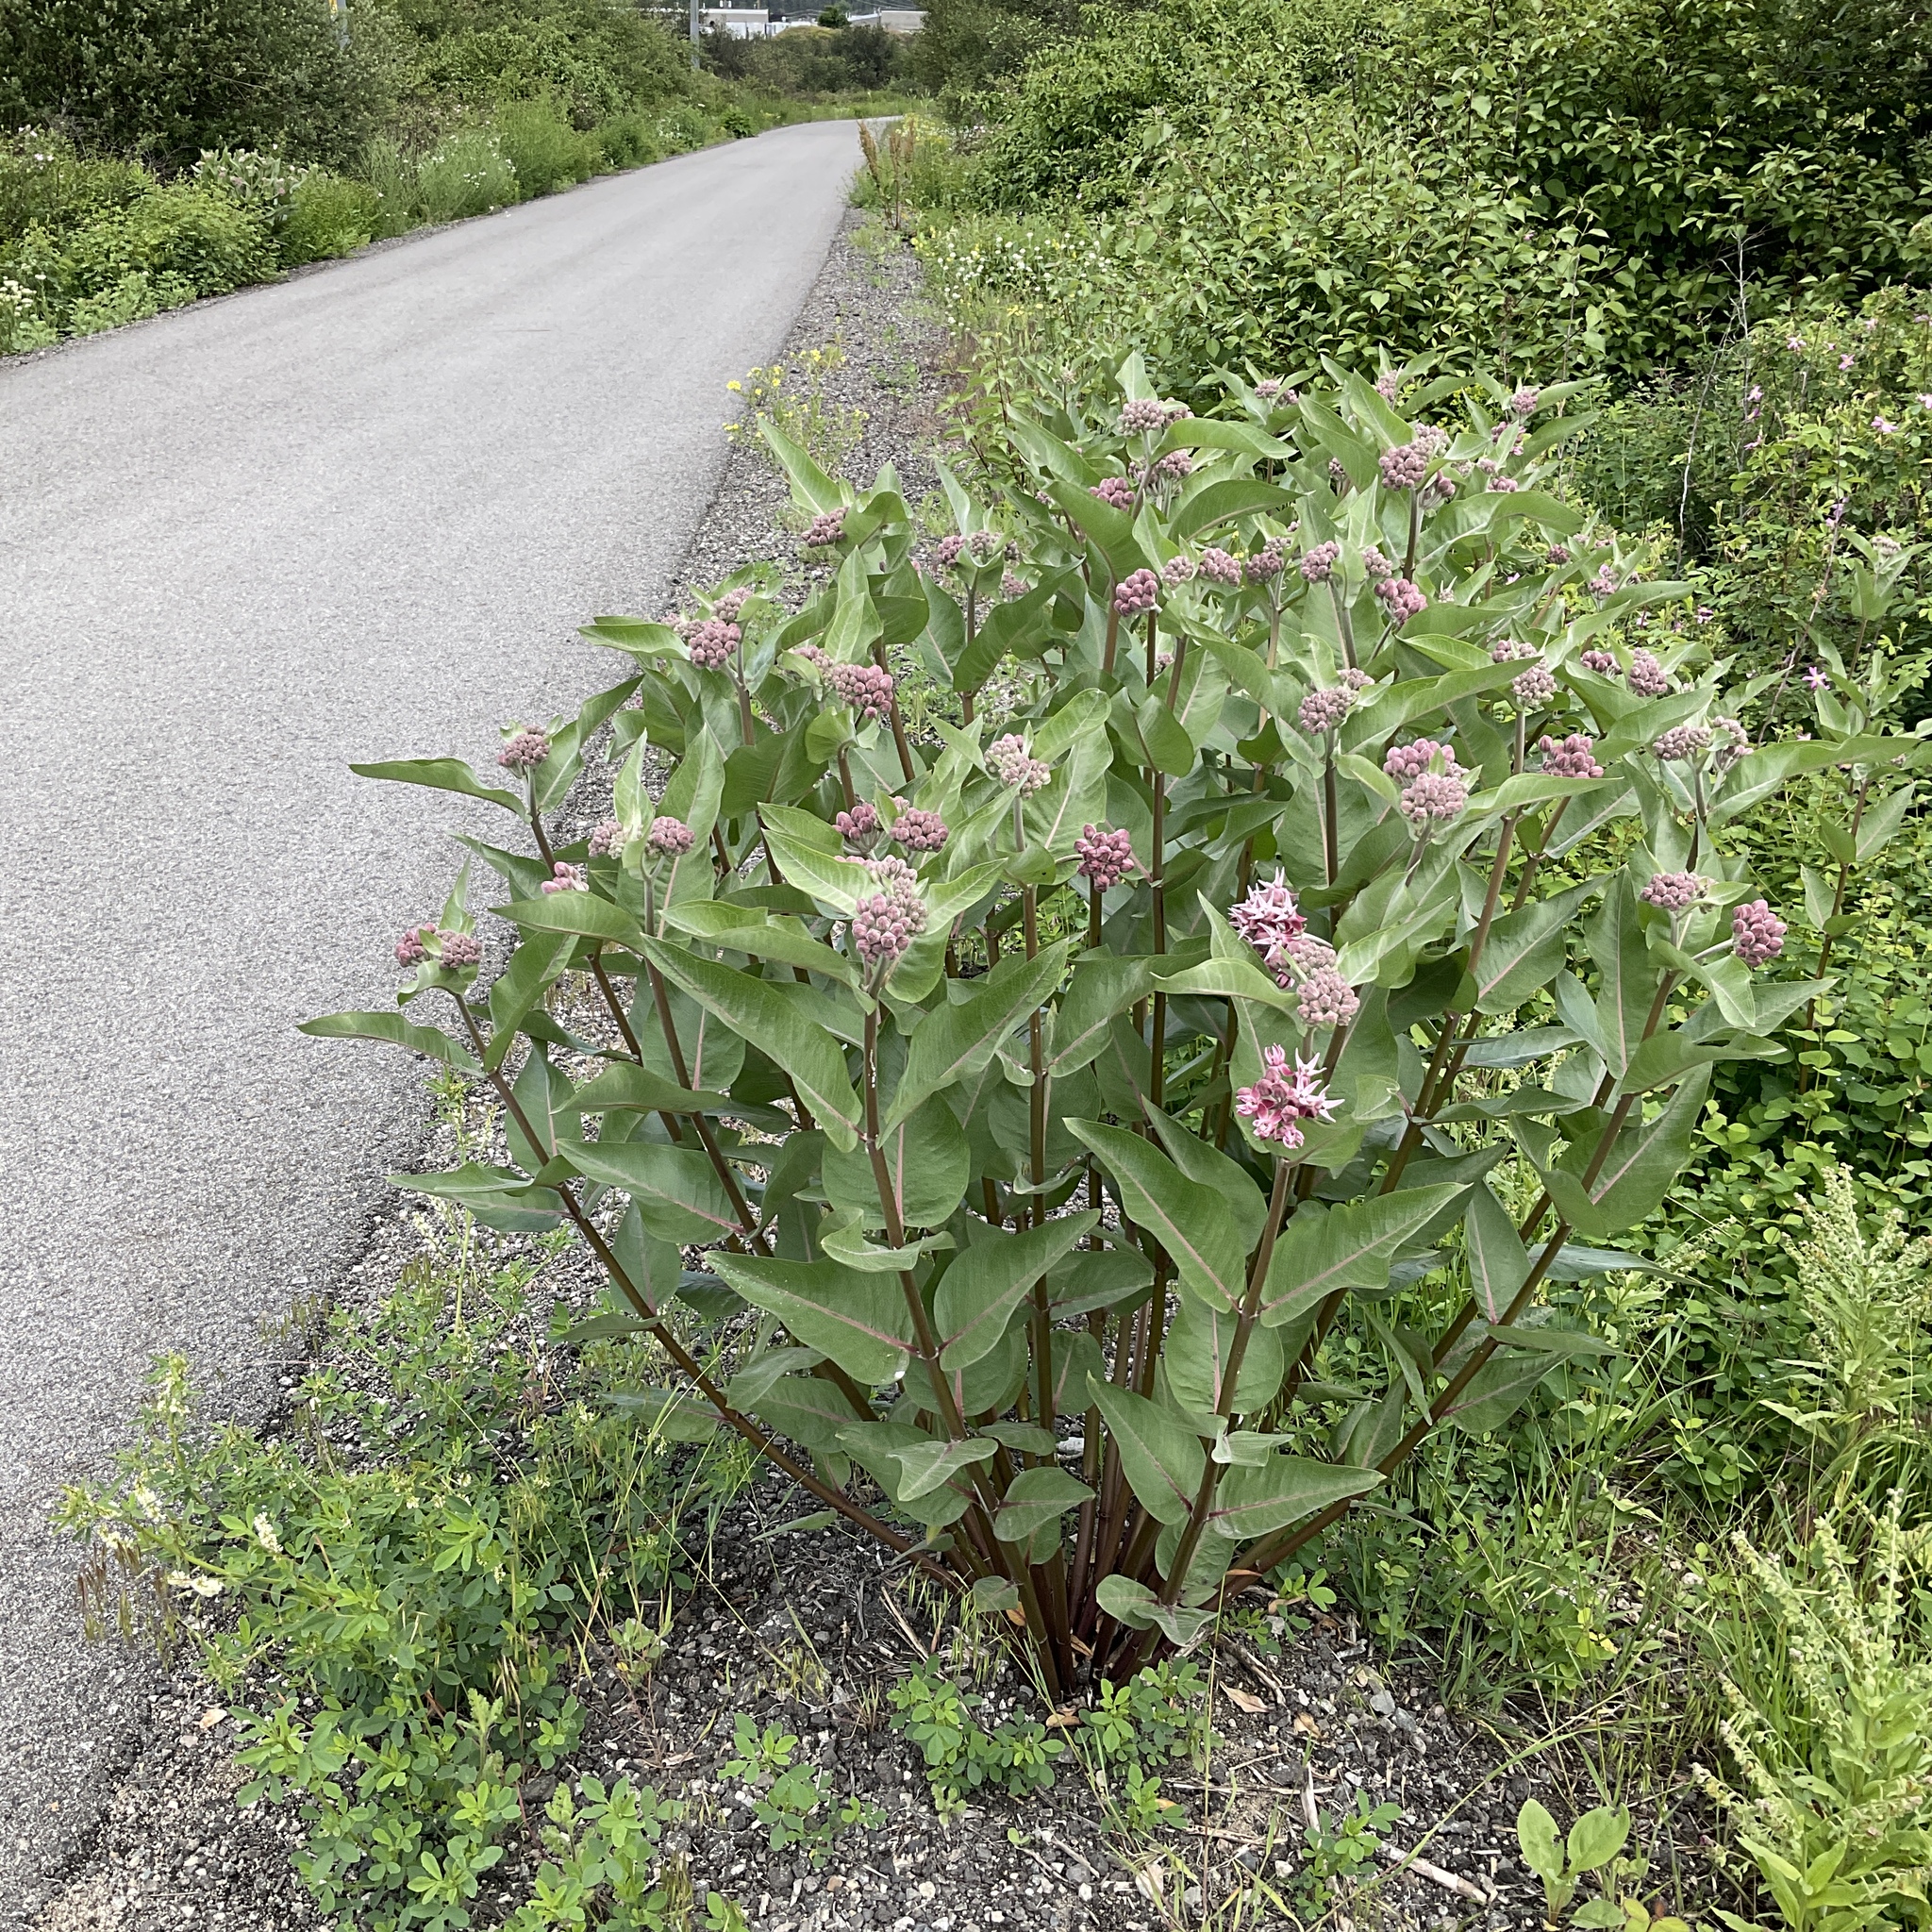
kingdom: Plantae
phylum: Tracheophyta
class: Magnoliopsida
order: Gentianales
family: Apocynaceae
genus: Asclepias
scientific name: Asclepias speciosa
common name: Showy milkweed
